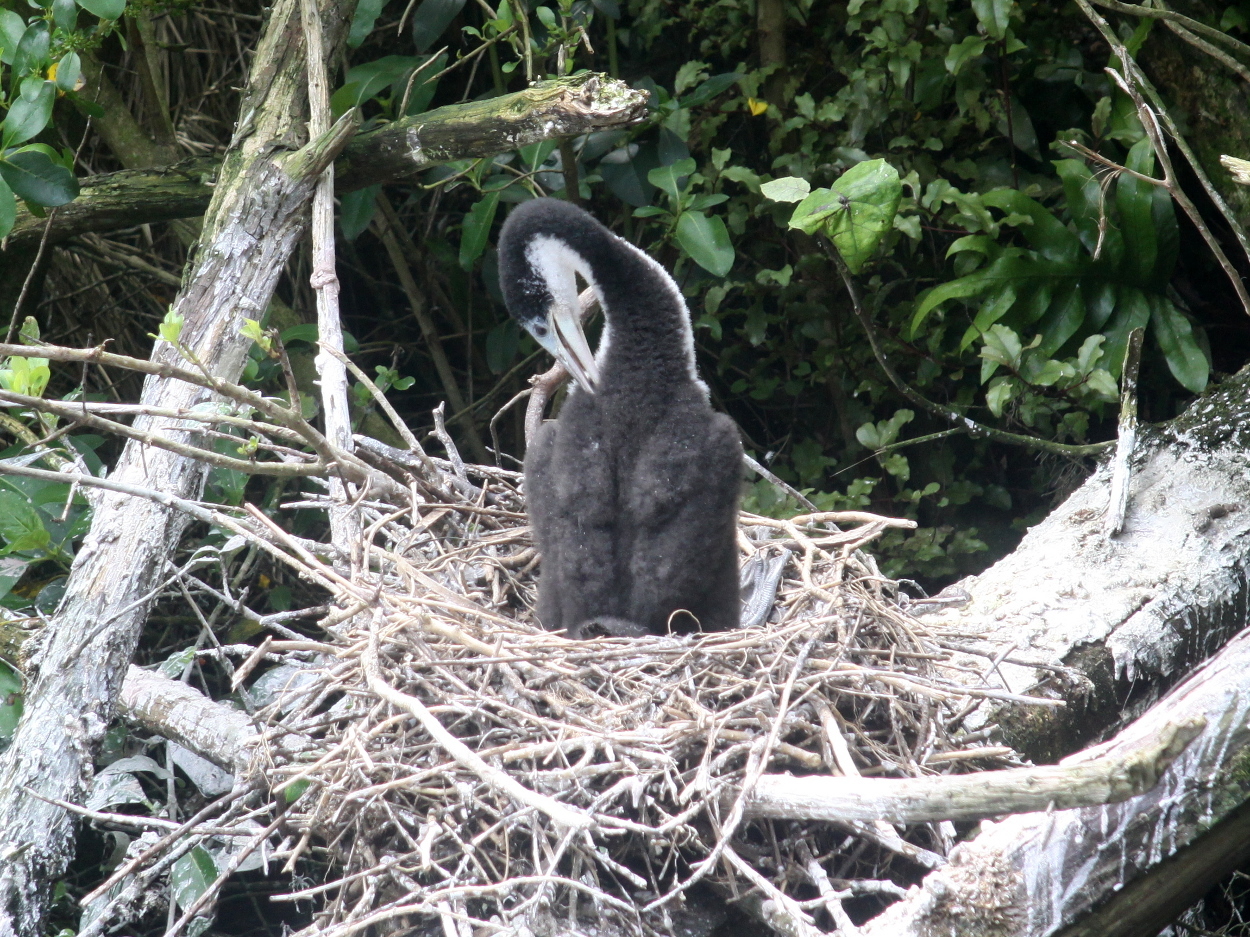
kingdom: Animalia
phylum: Chordata
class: Aves
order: Suliformes
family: Phalacrocoracidae
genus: Phalacrocorax
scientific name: Phalacrocorax varius
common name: Pied cormorant
